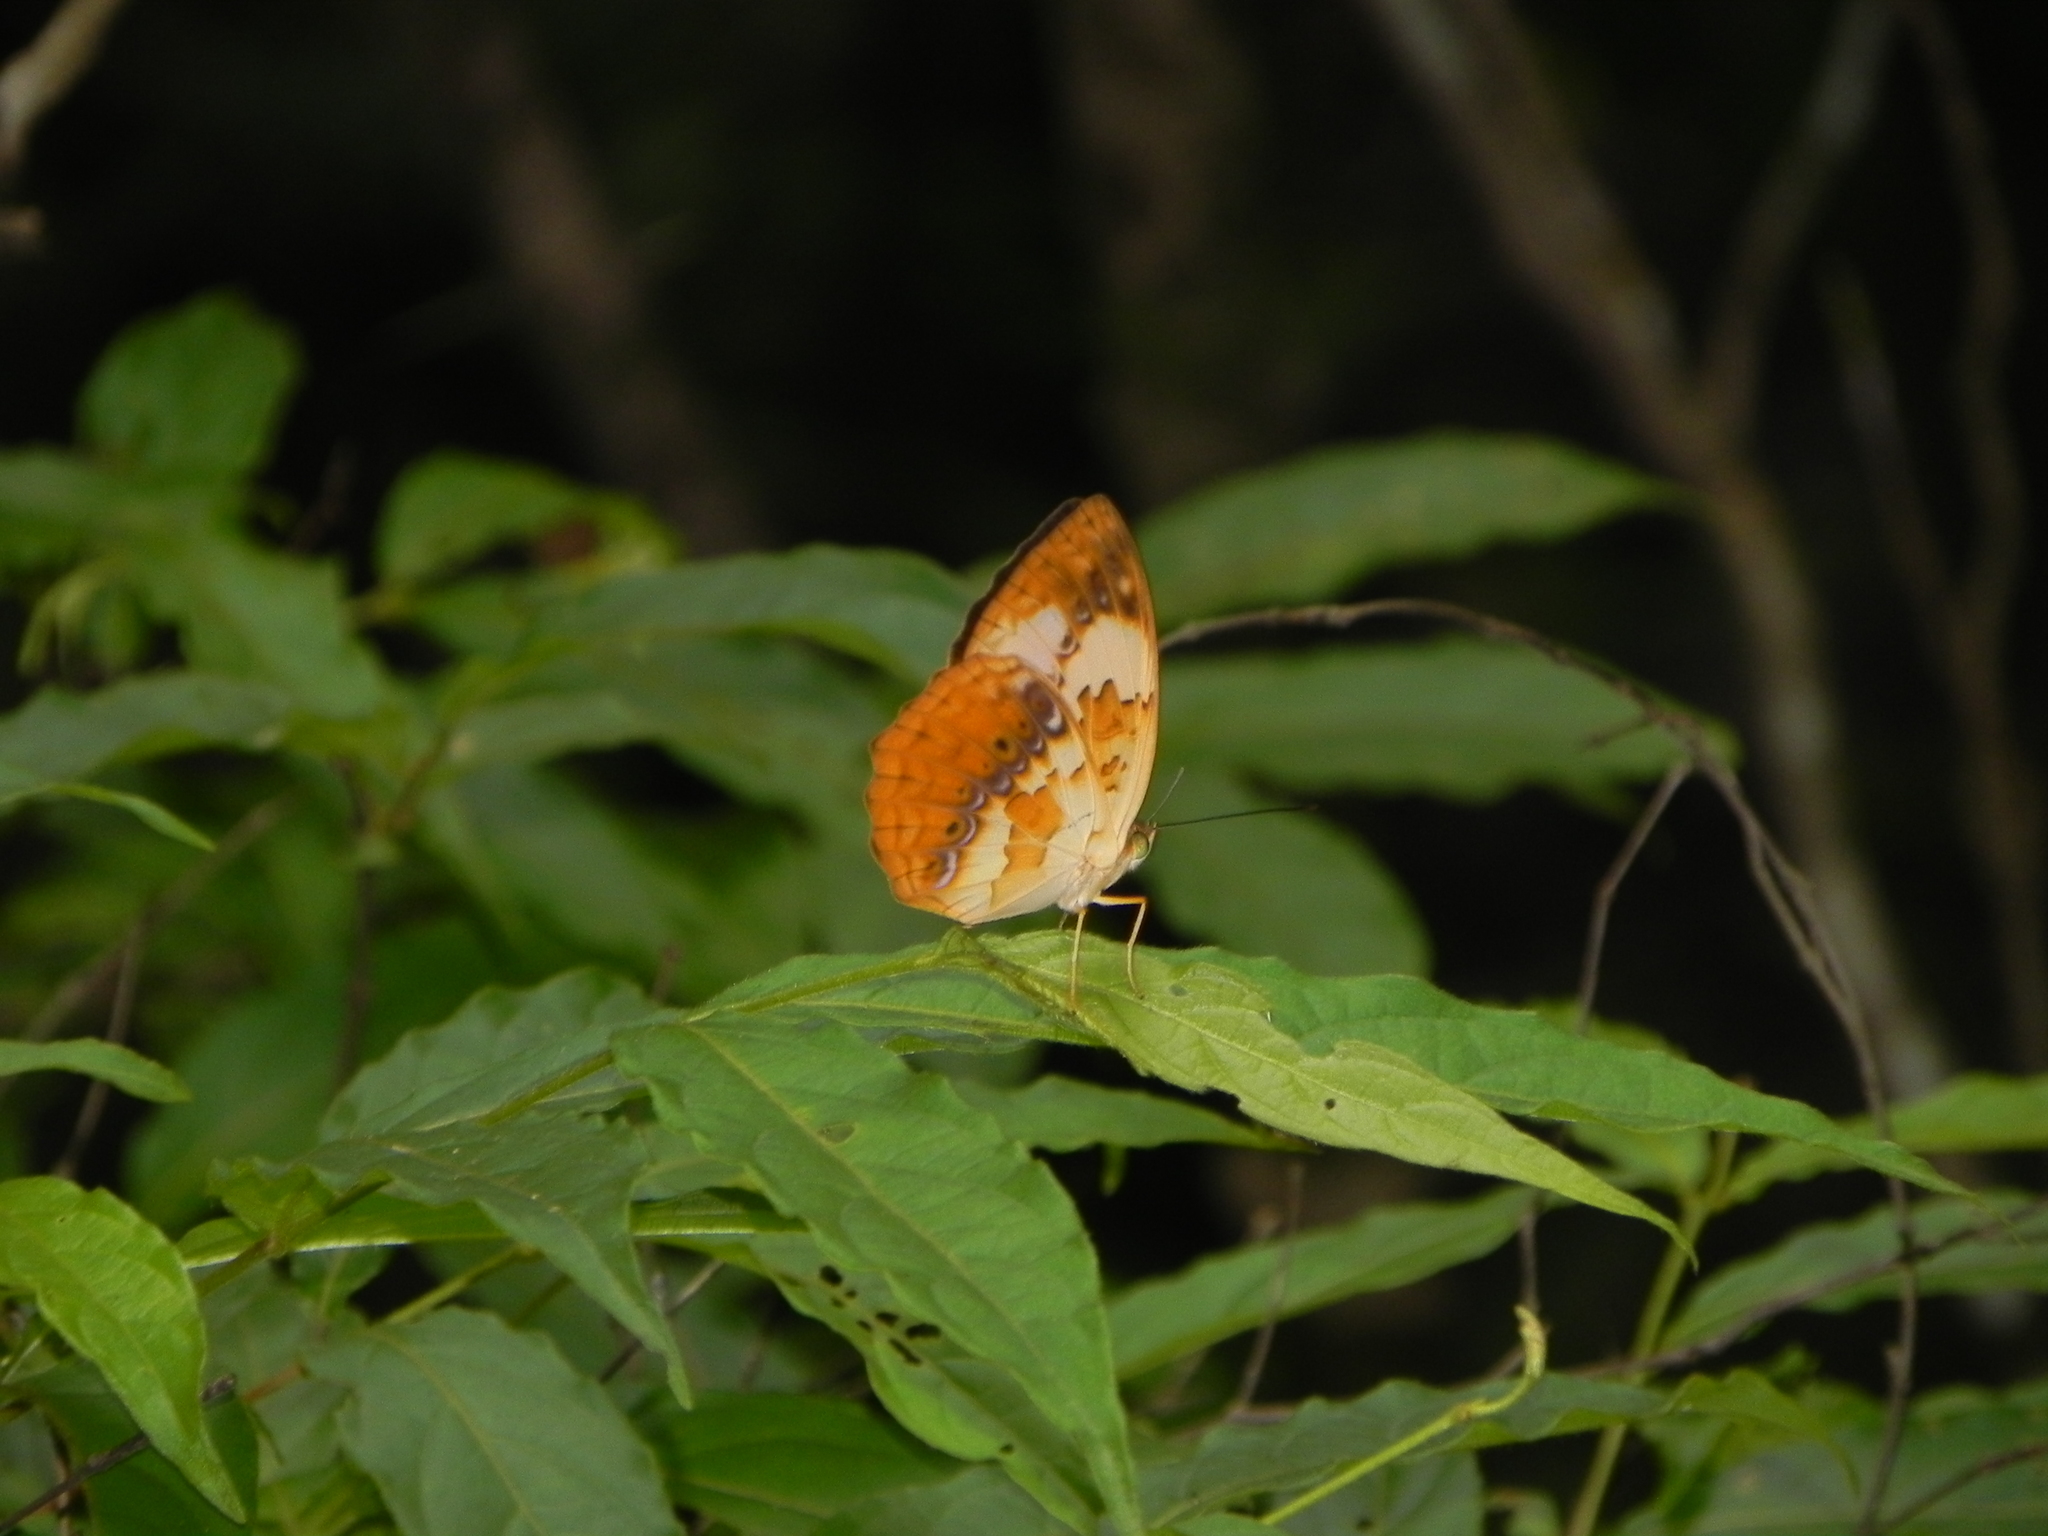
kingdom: Animalia
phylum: Arthropoda
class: Insecta
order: Lepidoptera
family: Nymphalidae
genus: Cupha
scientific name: Cupha erymanthis
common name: Rustic
